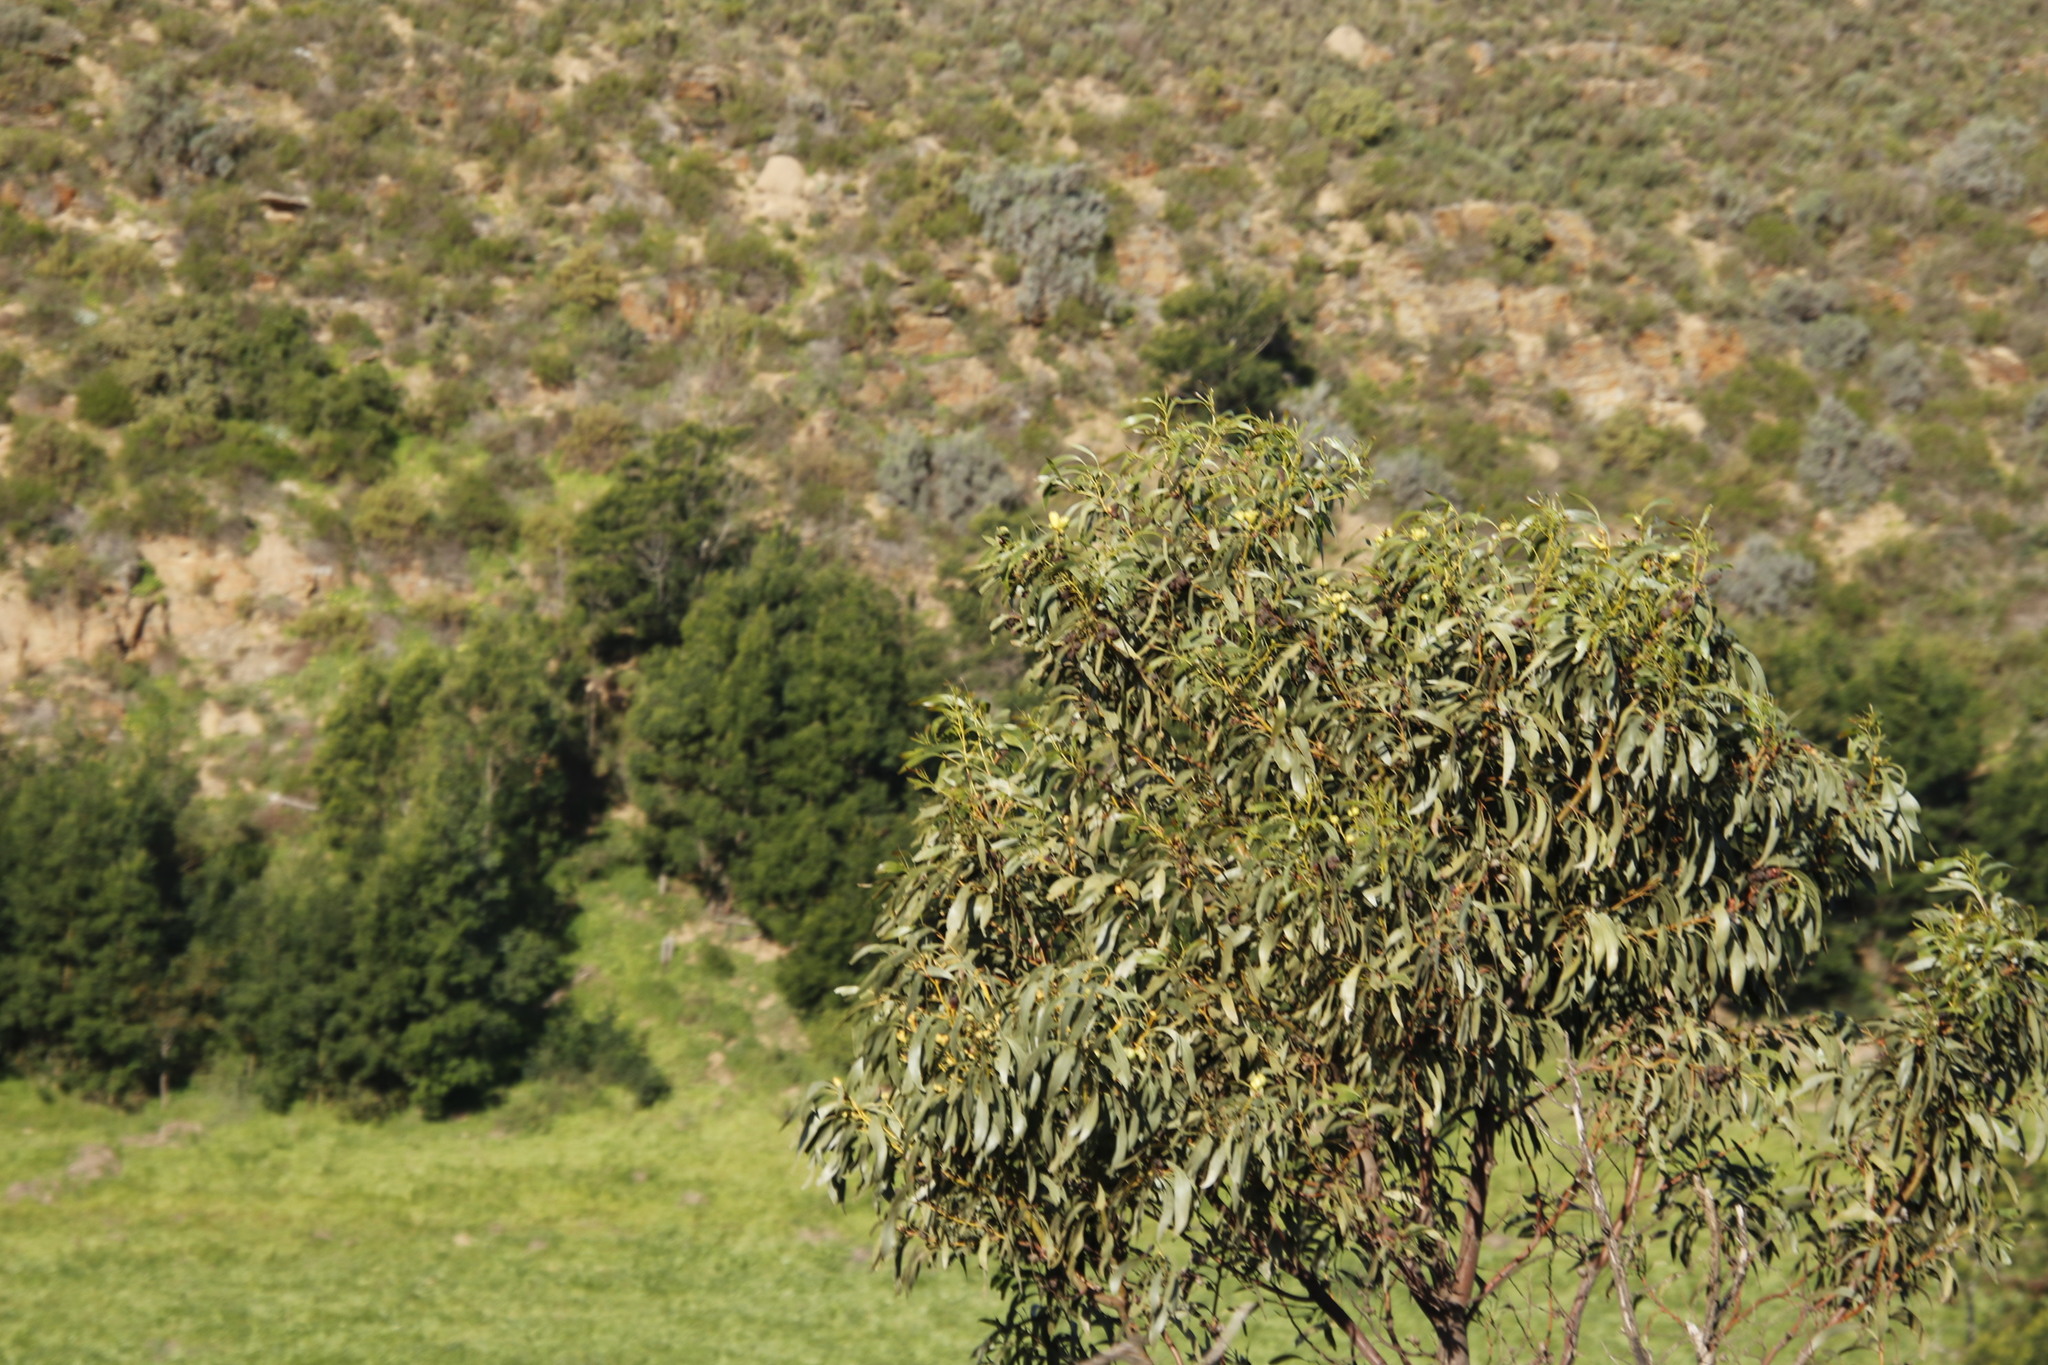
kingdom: Plantae
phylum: Tracheophyta
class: Magnoliopsida
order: Fabales
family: Fabaceae
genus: Acacia
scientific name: Acacia pycnantha
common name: Golden wattle
